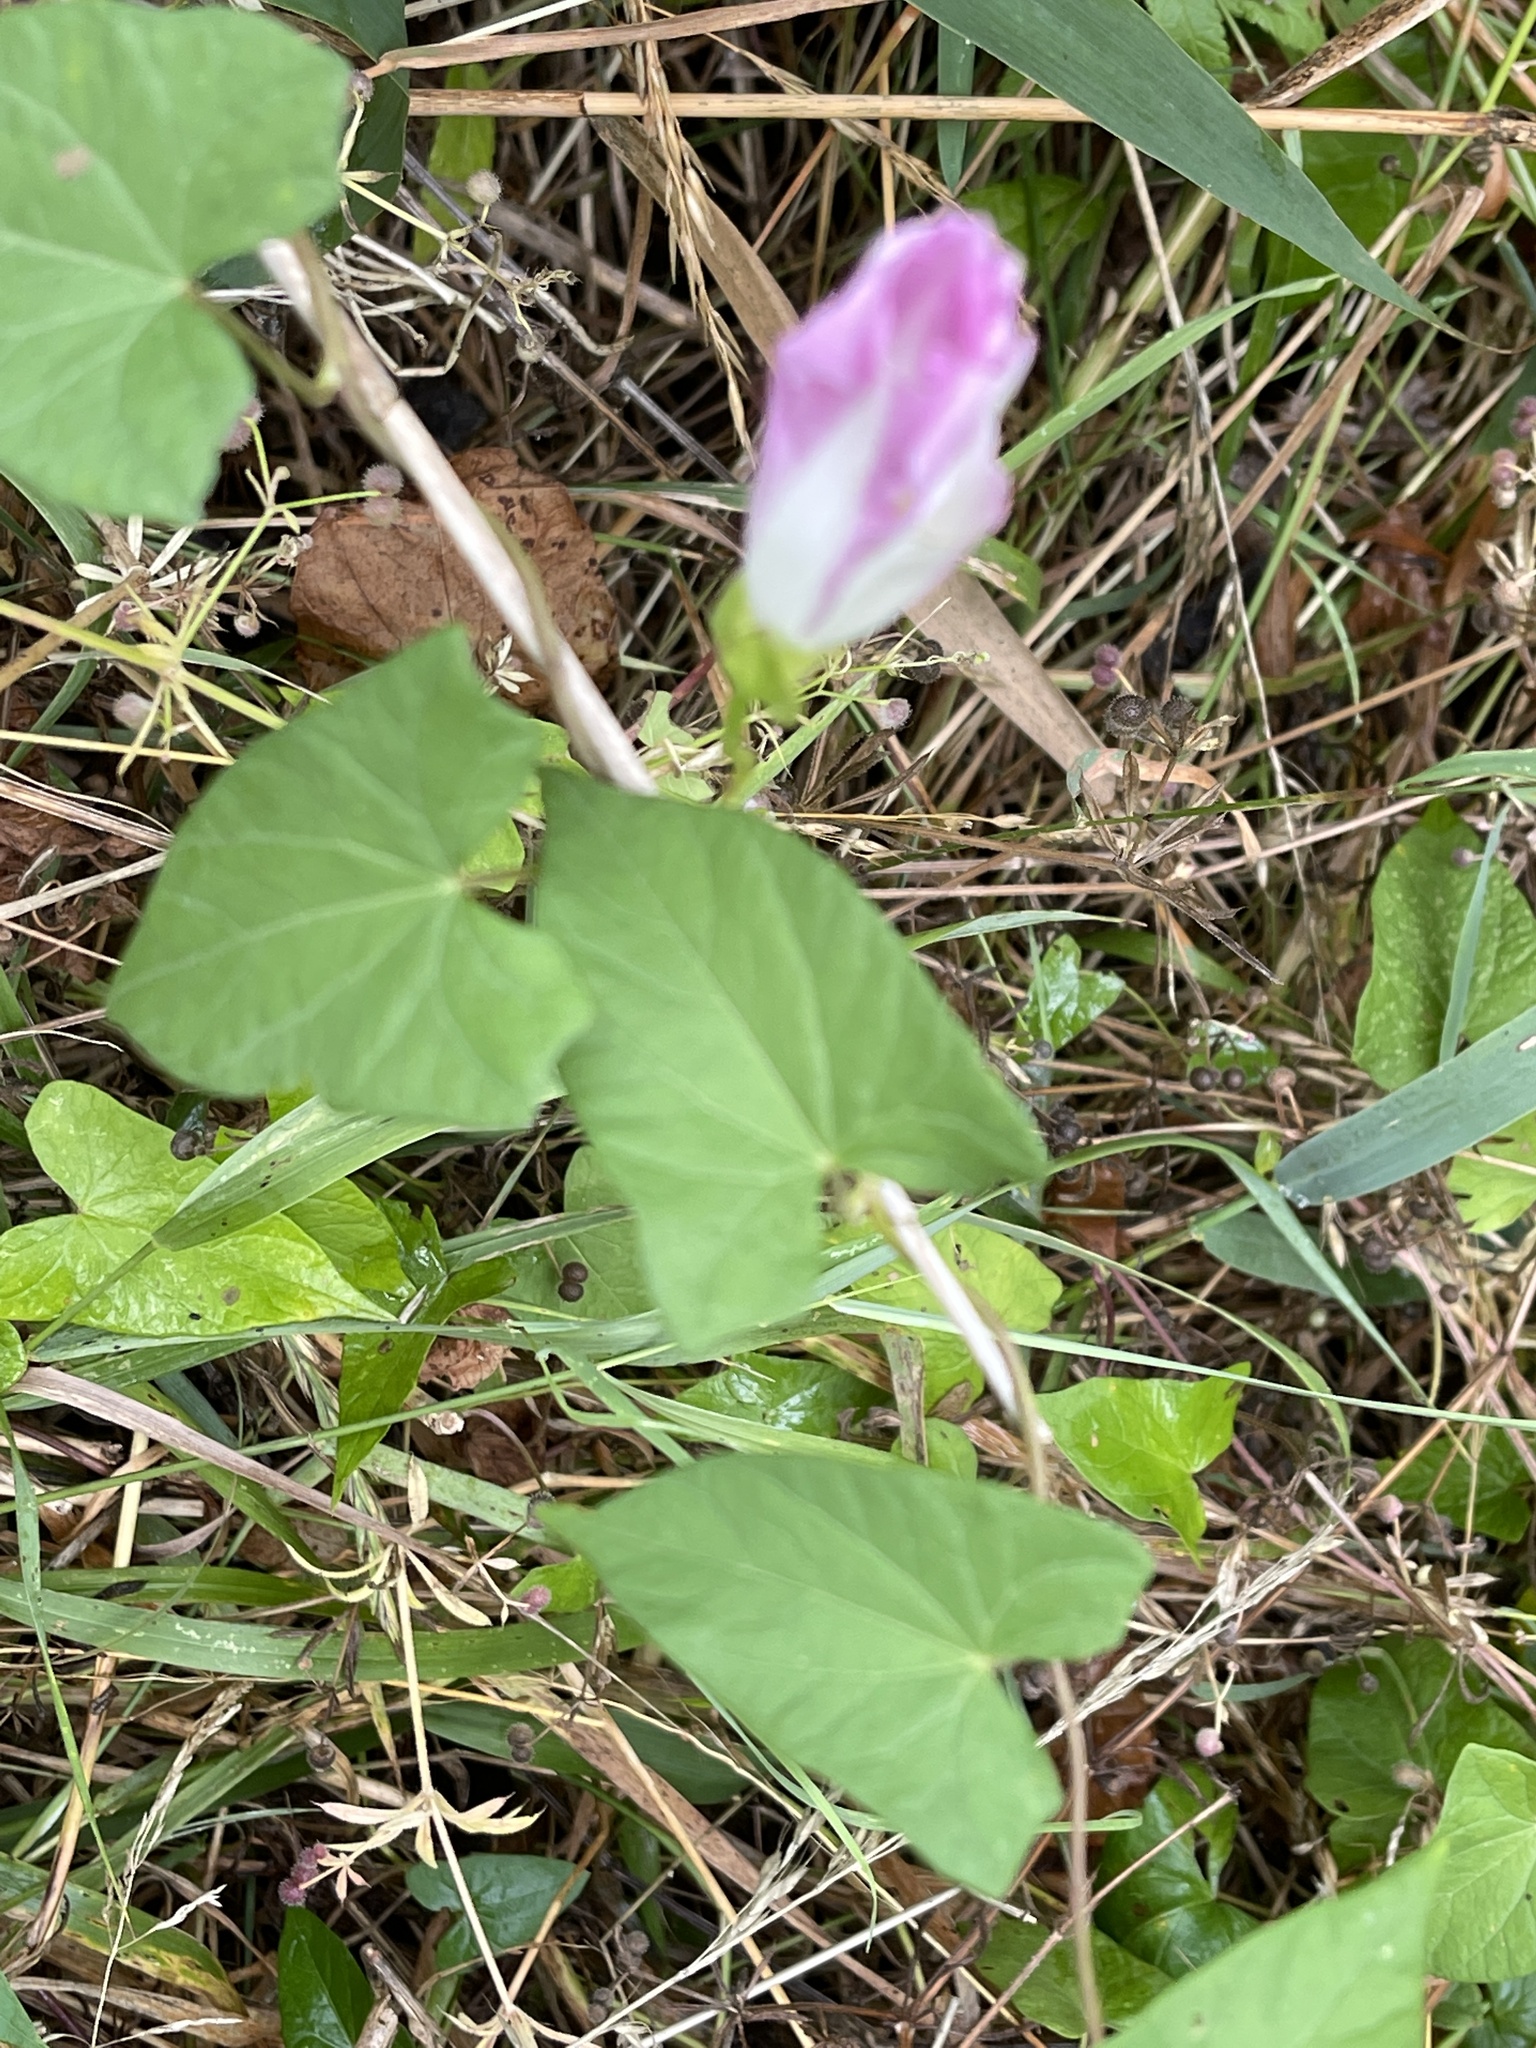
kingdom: Plantae
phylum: Tracheophyta
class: Magnoliopsida
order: Solanales
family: Convolvulaceae
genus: Calystegia
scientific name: Calystegia sepium
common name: Hedge bindweed
